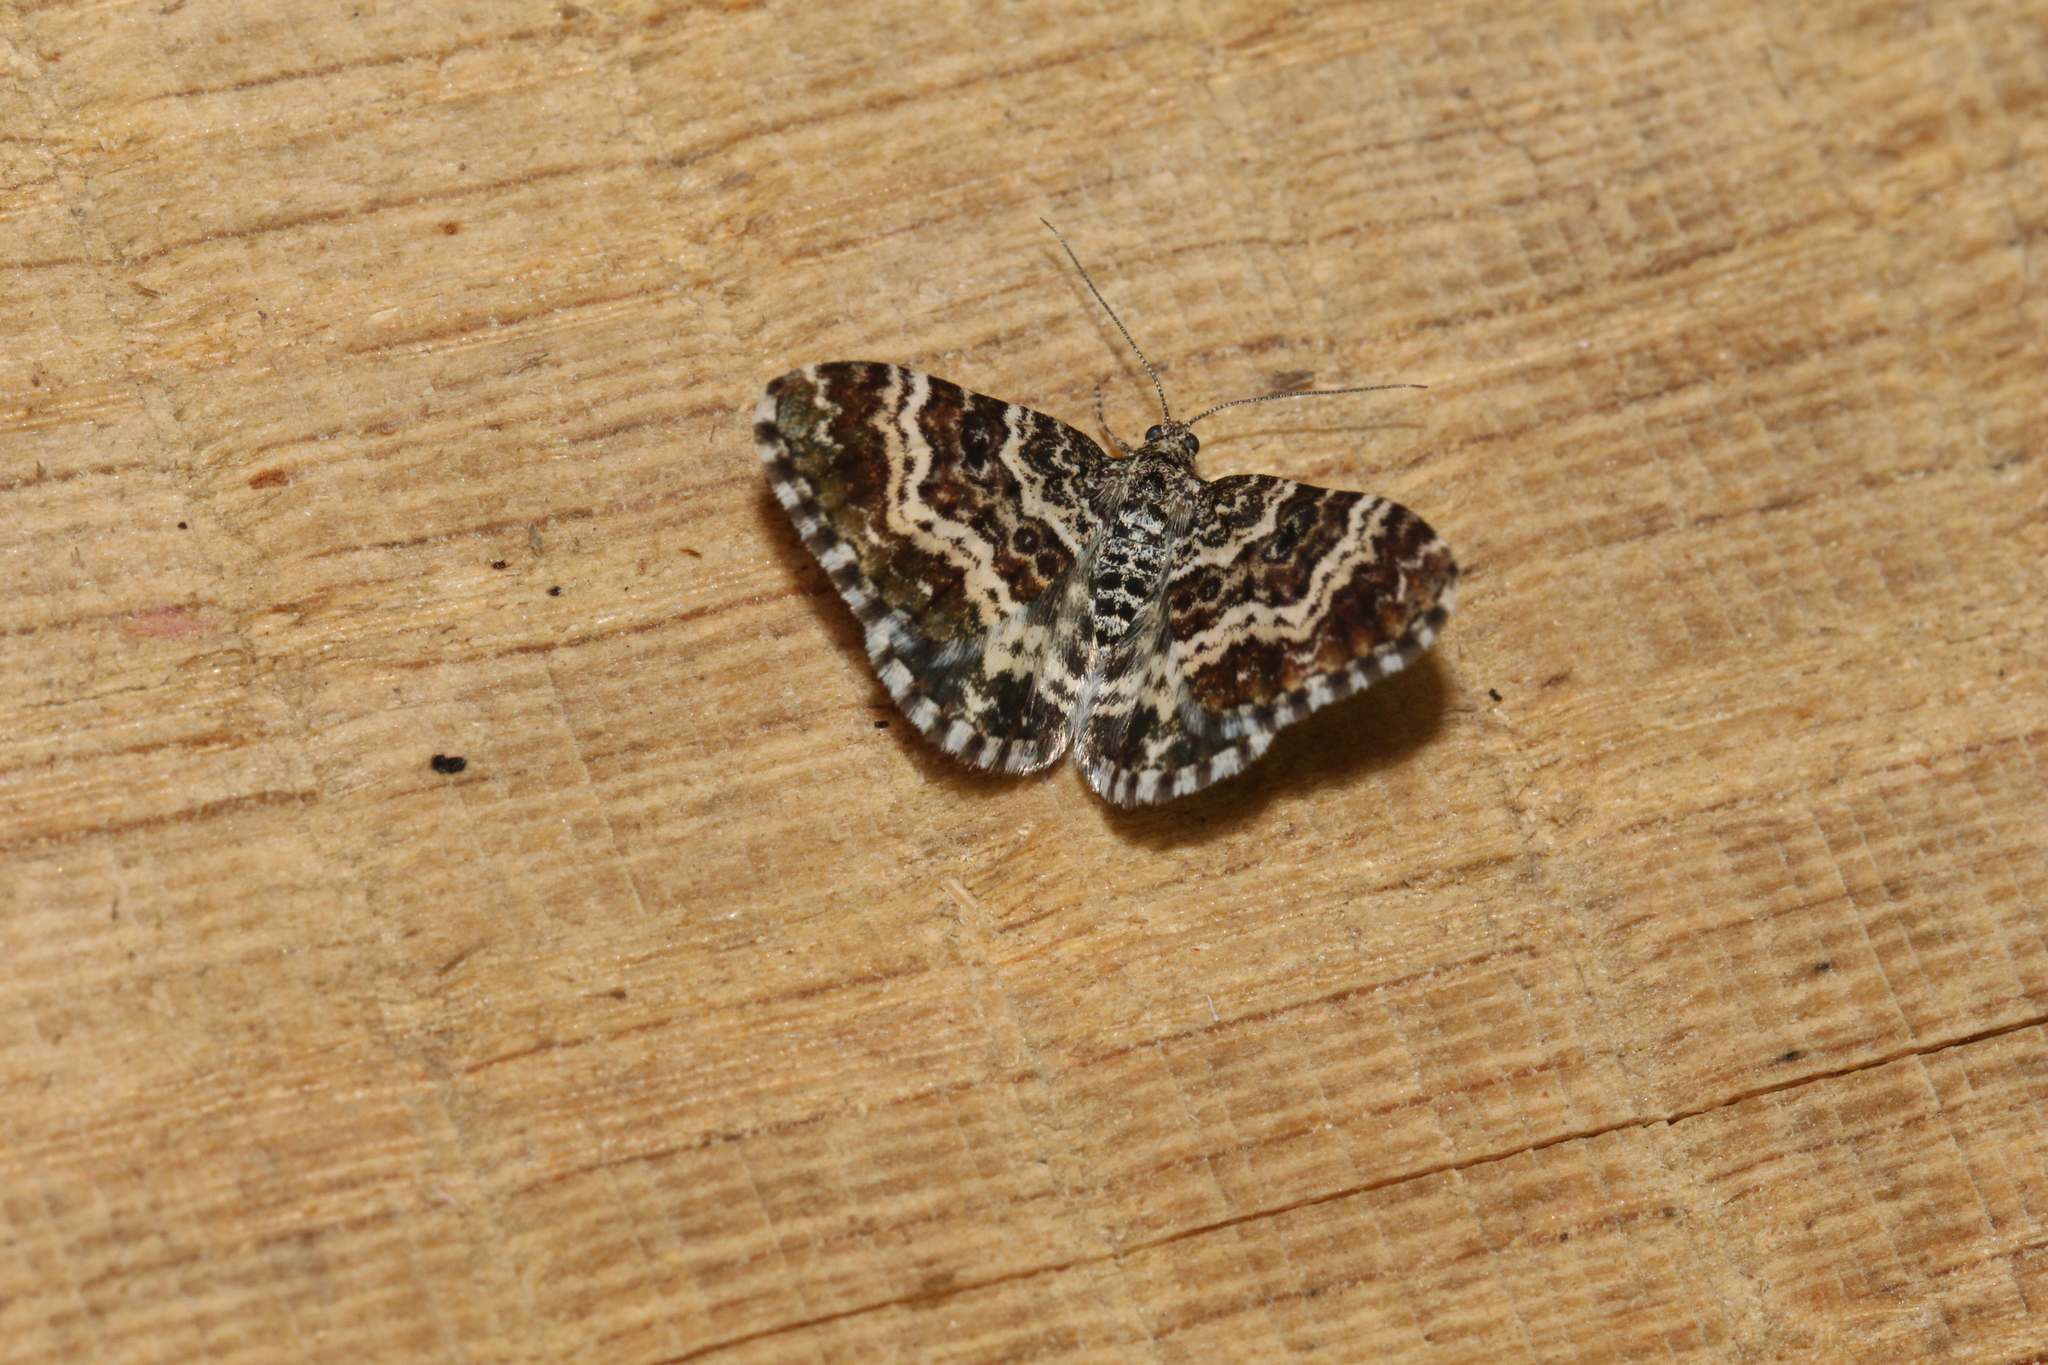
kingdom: Animalia
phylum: Arthropoda
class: Insecta
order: Lepidoptera
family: Geometridae
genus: Epirrhoe
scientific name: Epirrhoe tristata
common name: Small argent & sable
